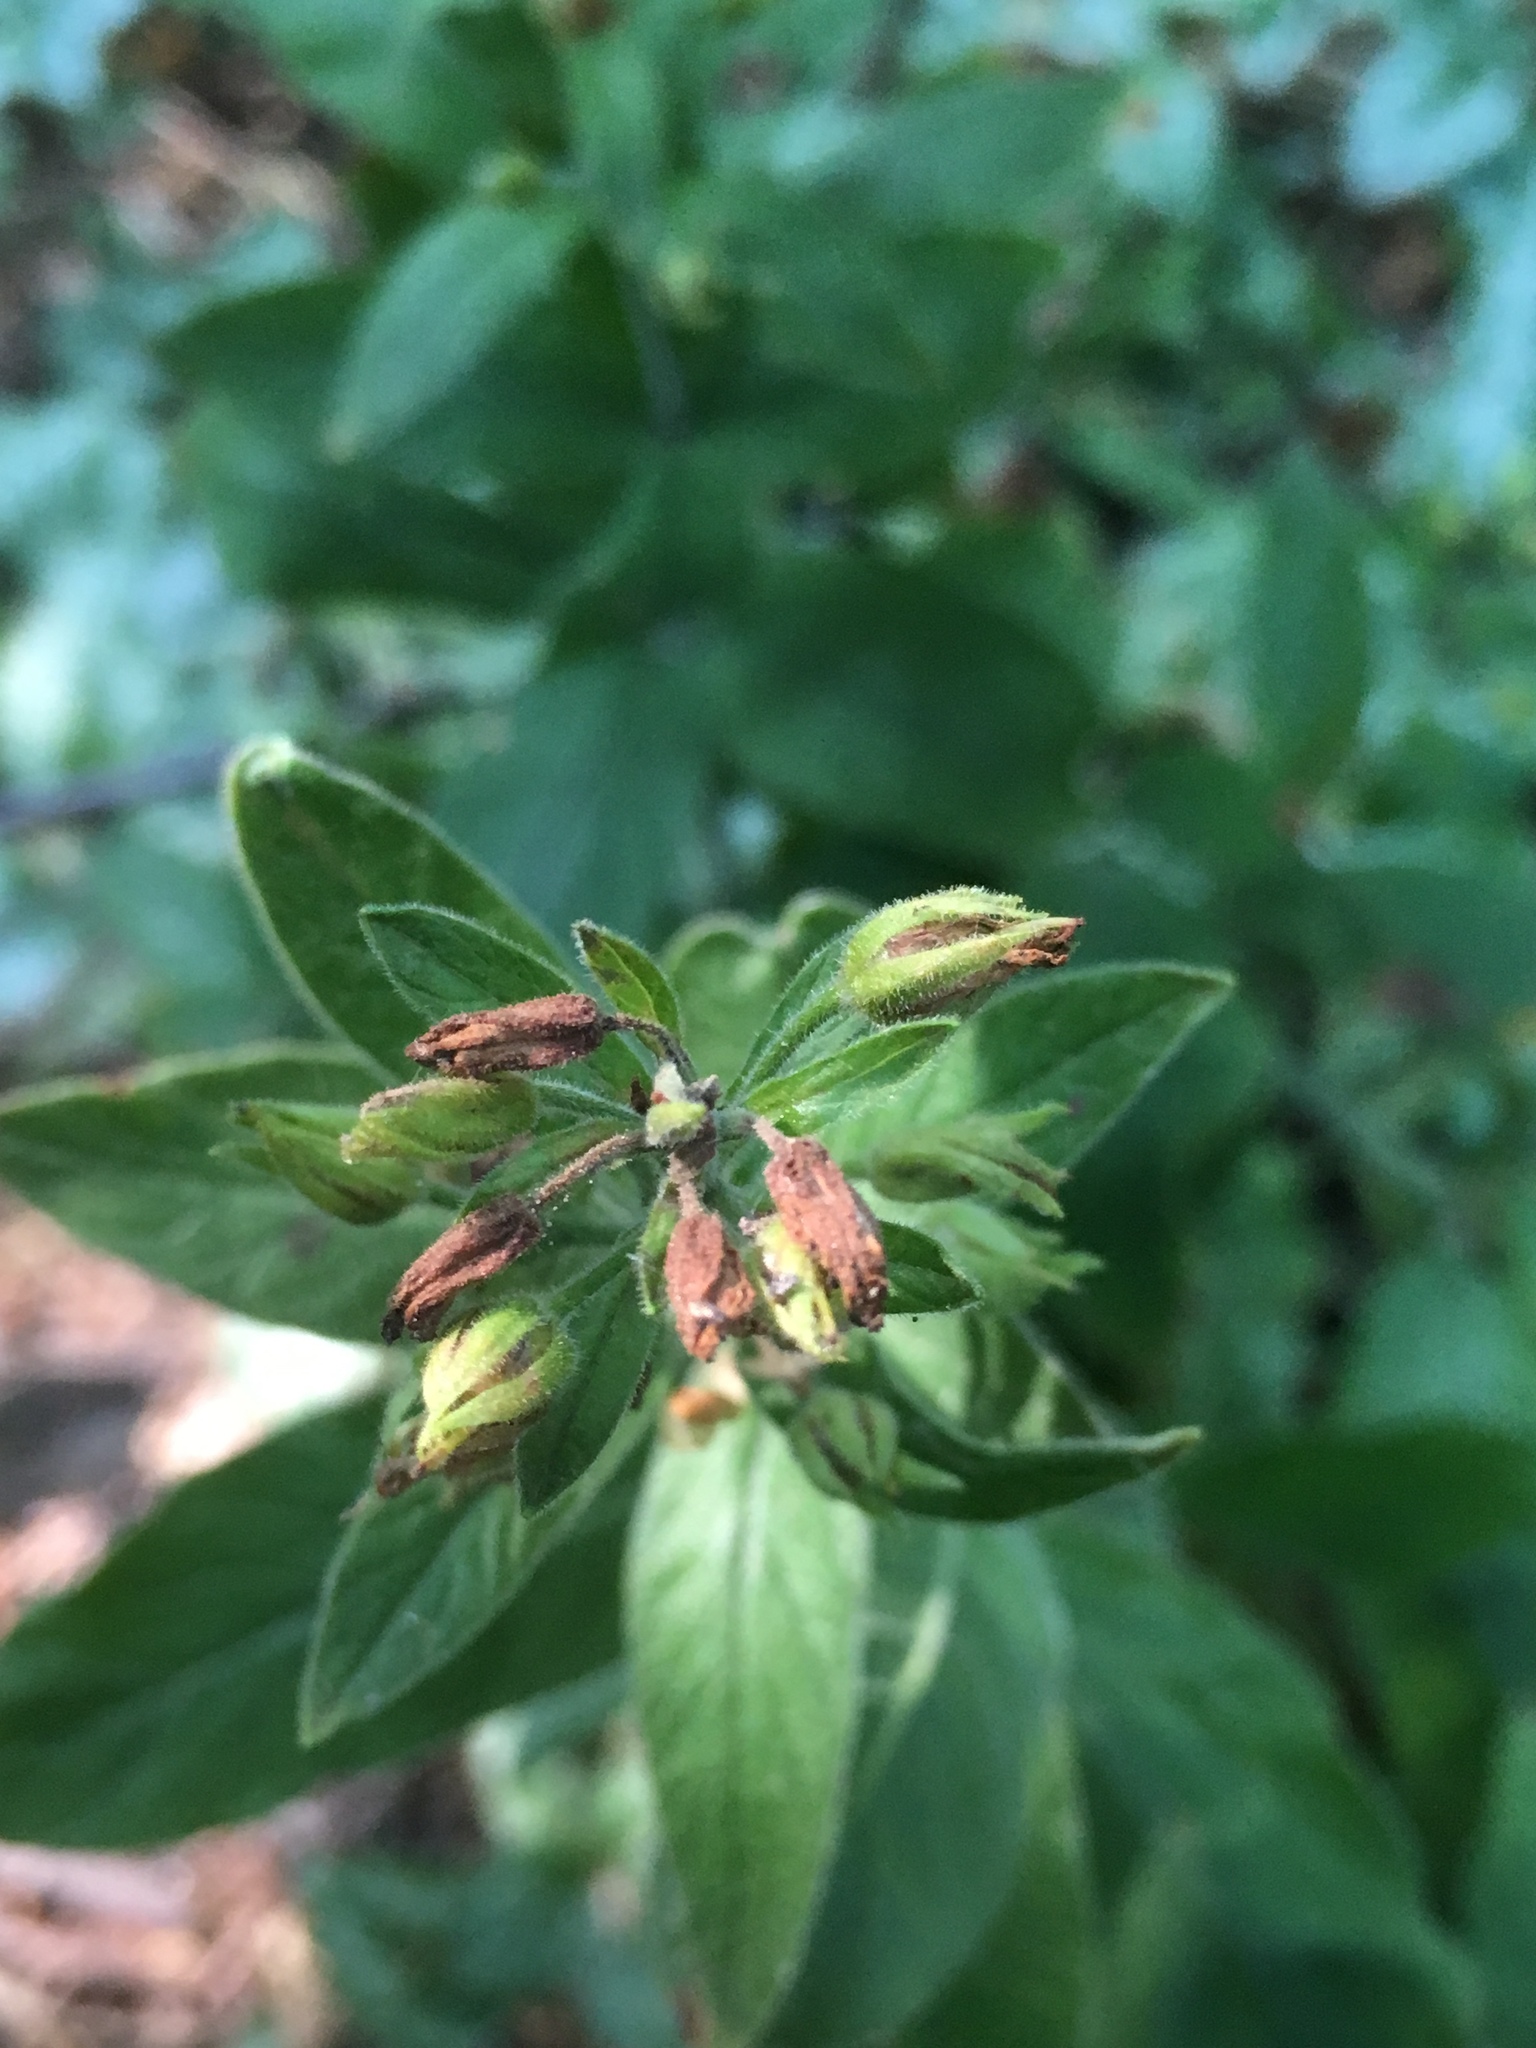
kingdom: Plantae
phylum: Tracheophyta
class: Magnoliopsida
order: Ericales
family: Primulaceae
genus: Lysimachia
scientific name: Lysimachia punctata
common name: Dotted loosestrife
